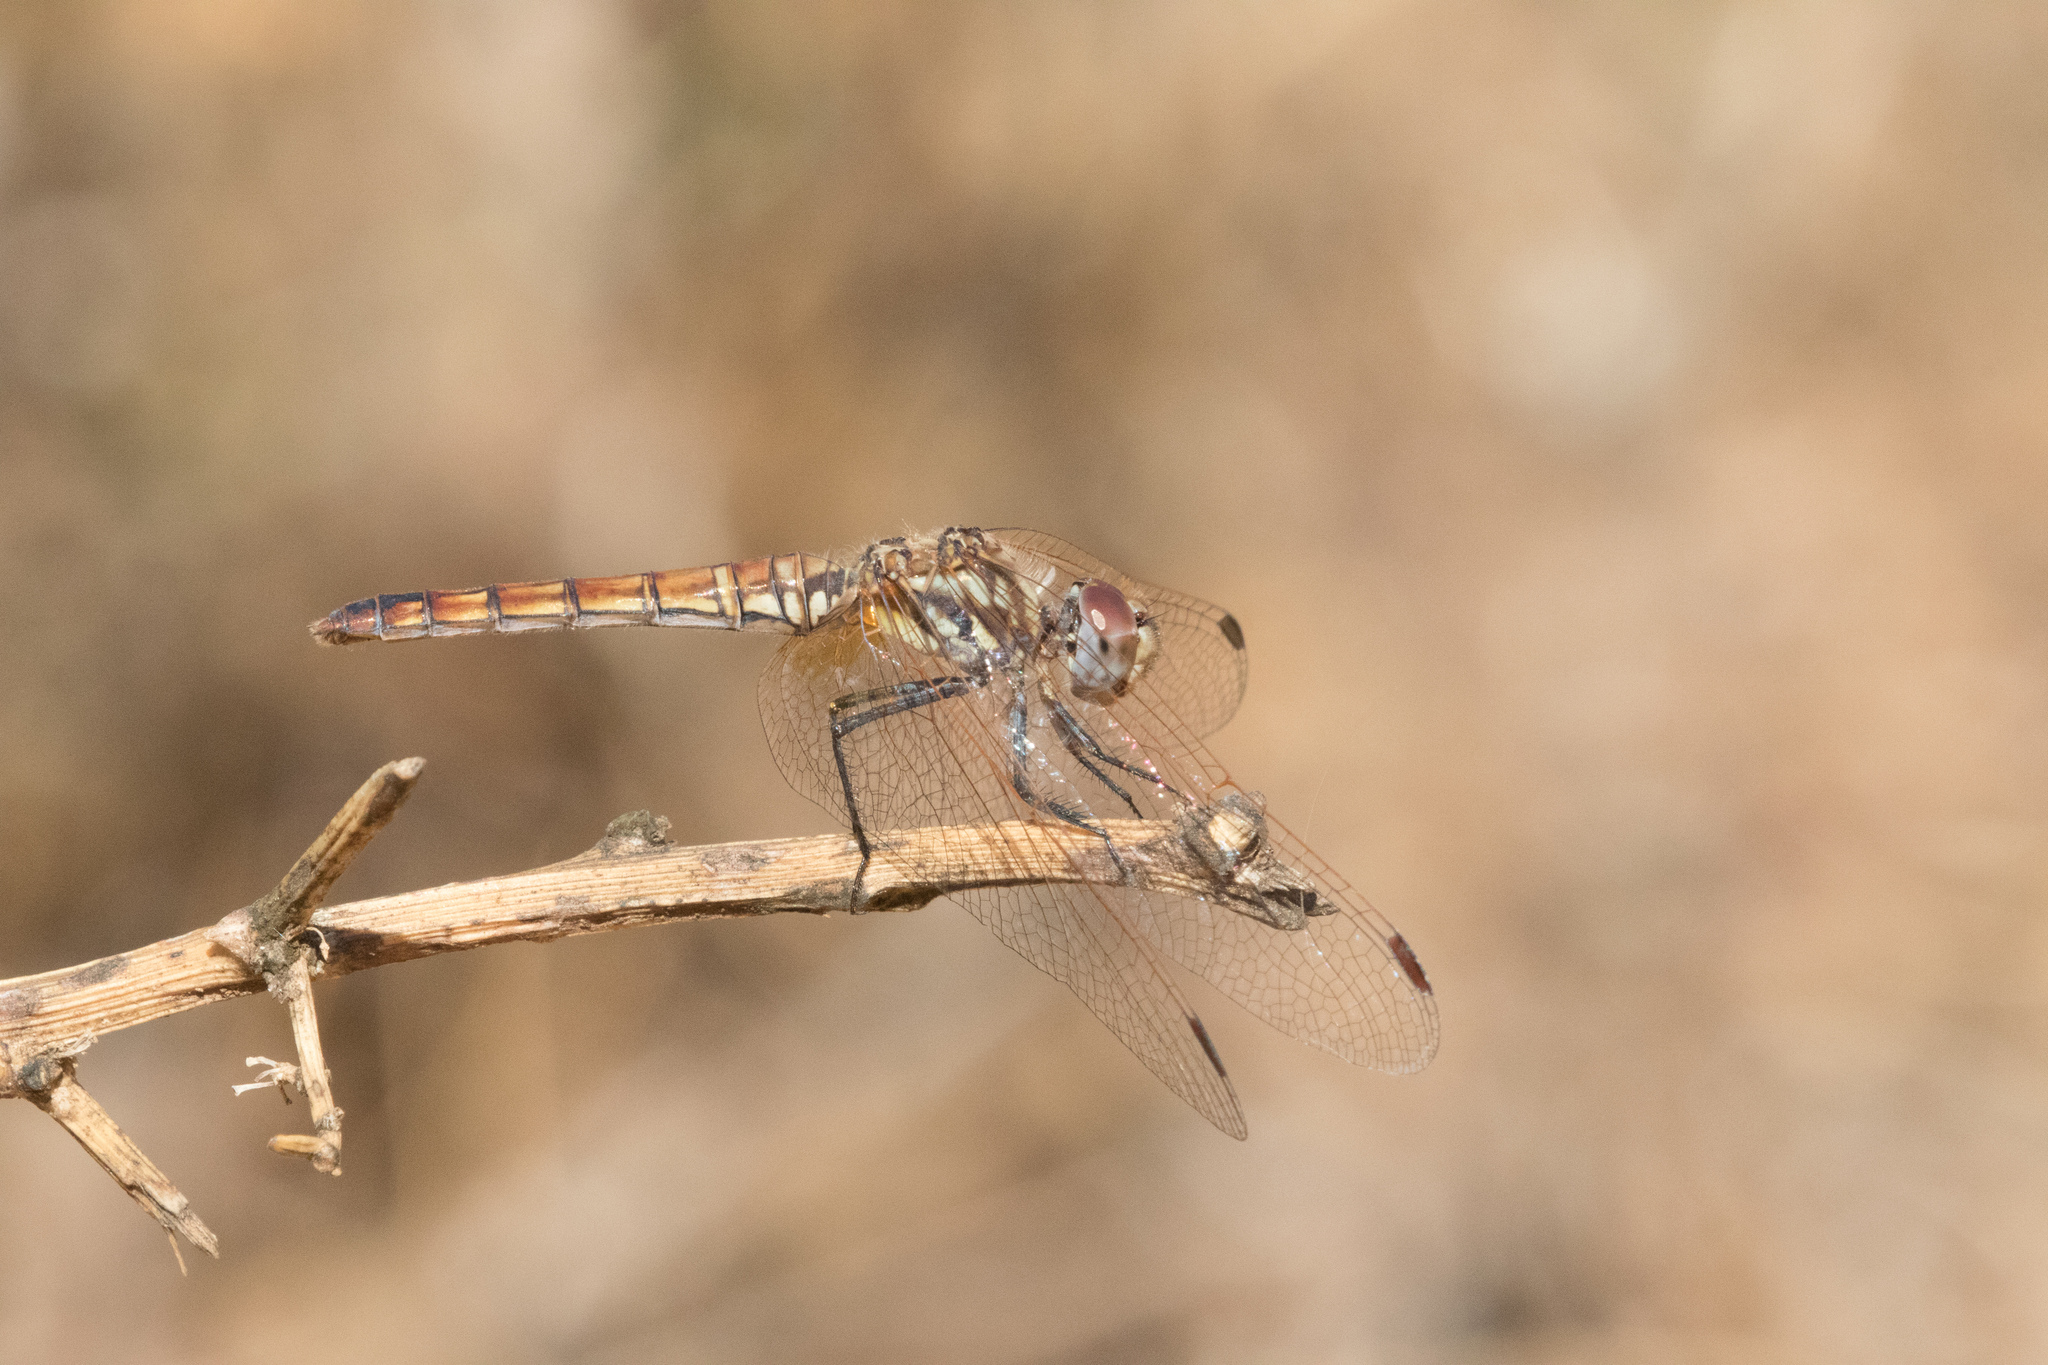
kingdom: Animalia
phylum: Arthropoda
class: Insecta
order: Odonata
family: Libellulidae
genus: Trithemis
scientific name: Trithemis annulata
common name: Violet dropwing
